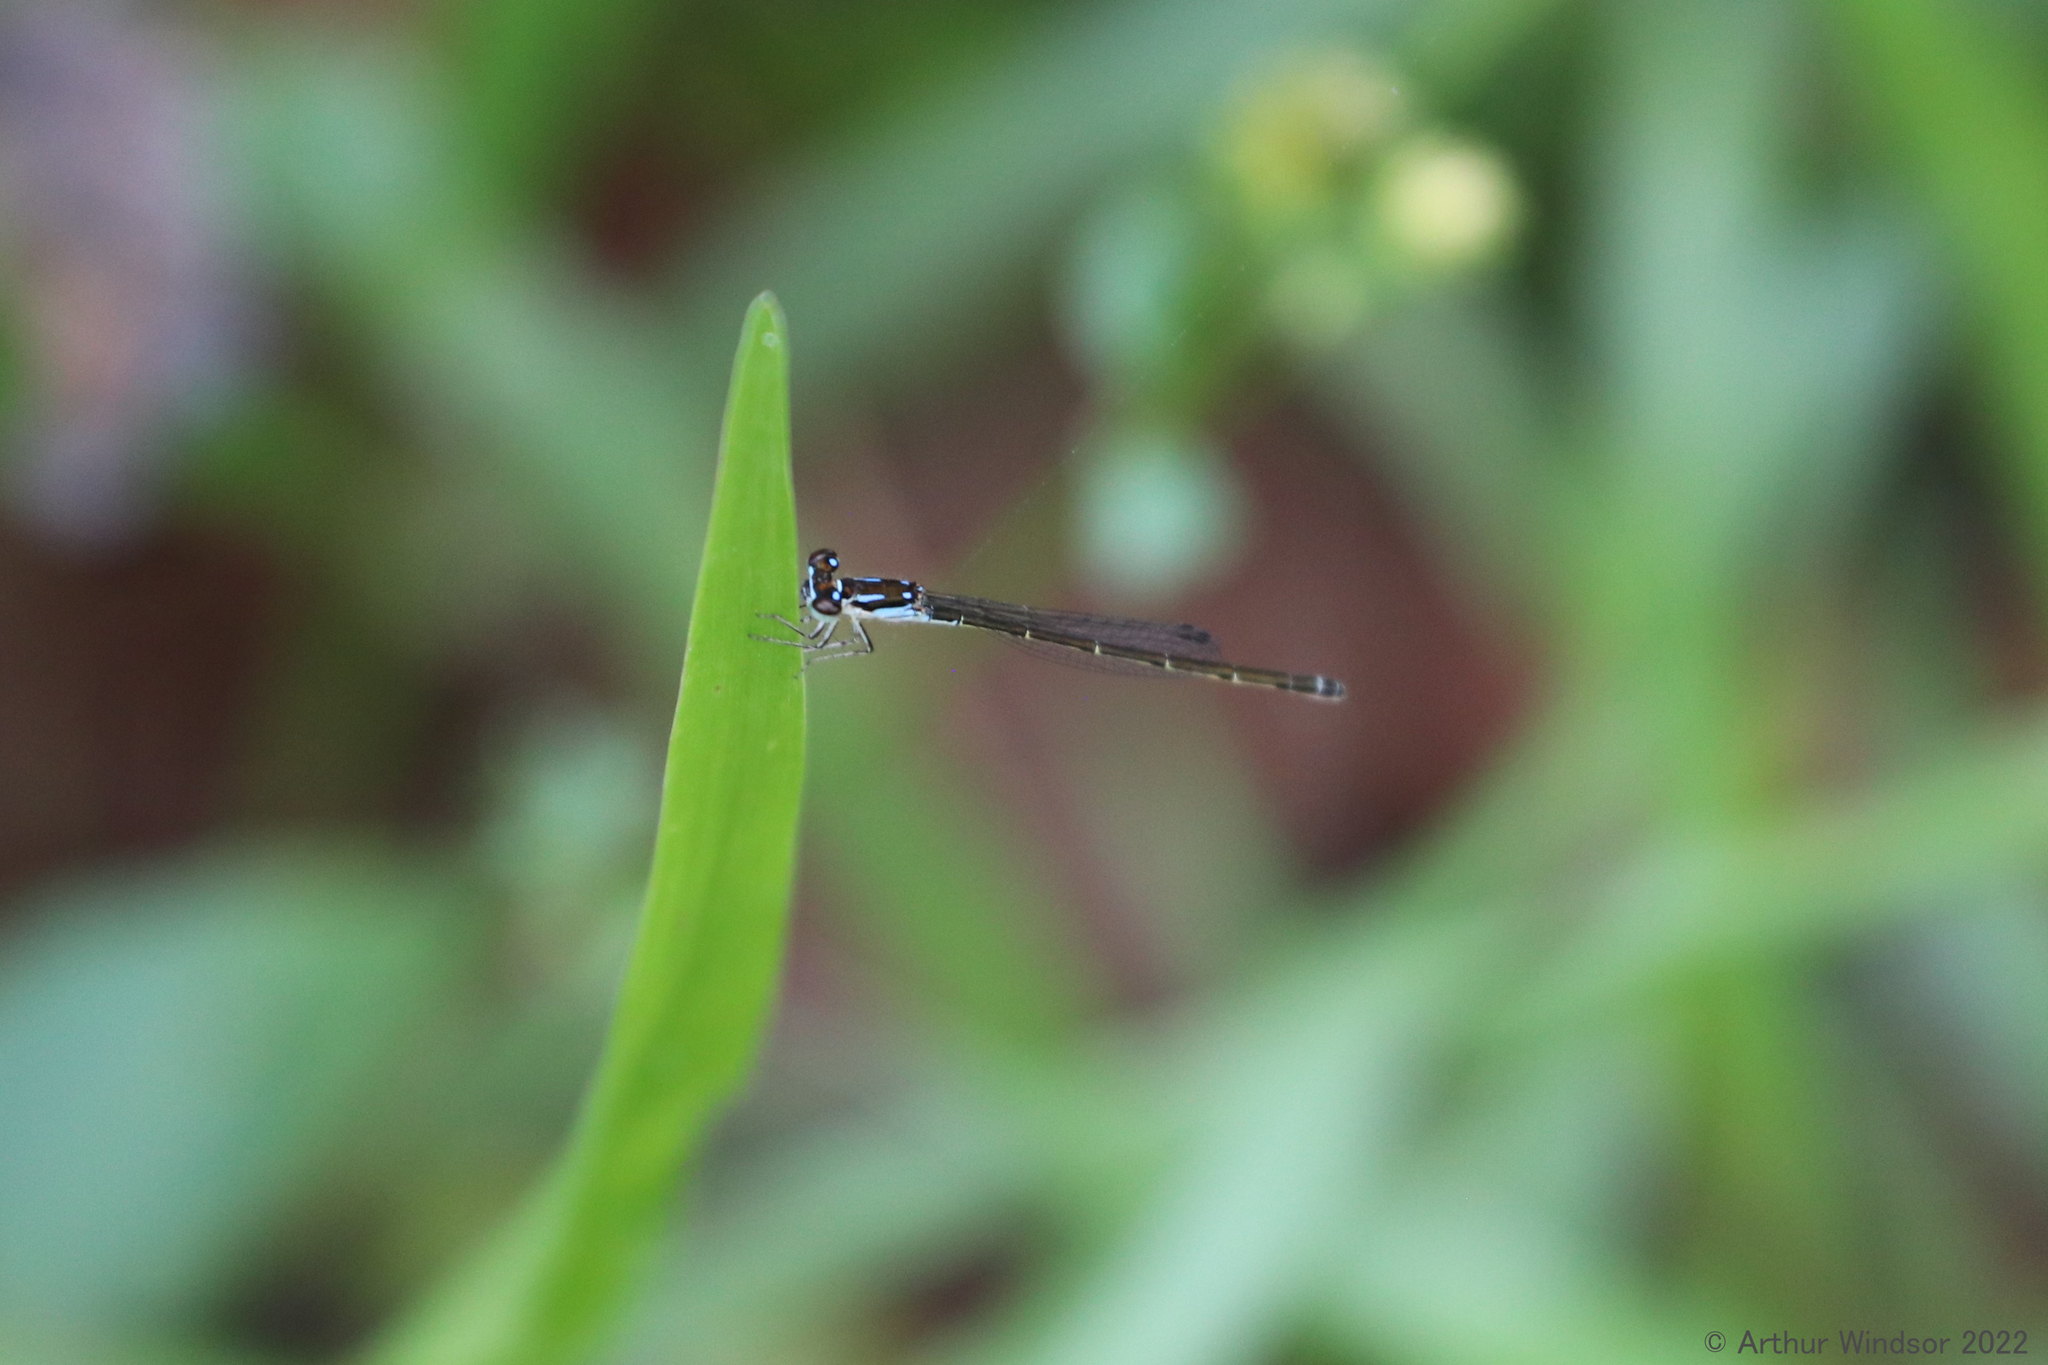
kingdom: Animalia
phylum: Arthropoda
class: Insecta
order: Odonata
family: Coenagrionidae
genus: Ischnura
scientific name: Ischnura posita
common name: Fragile forktail
